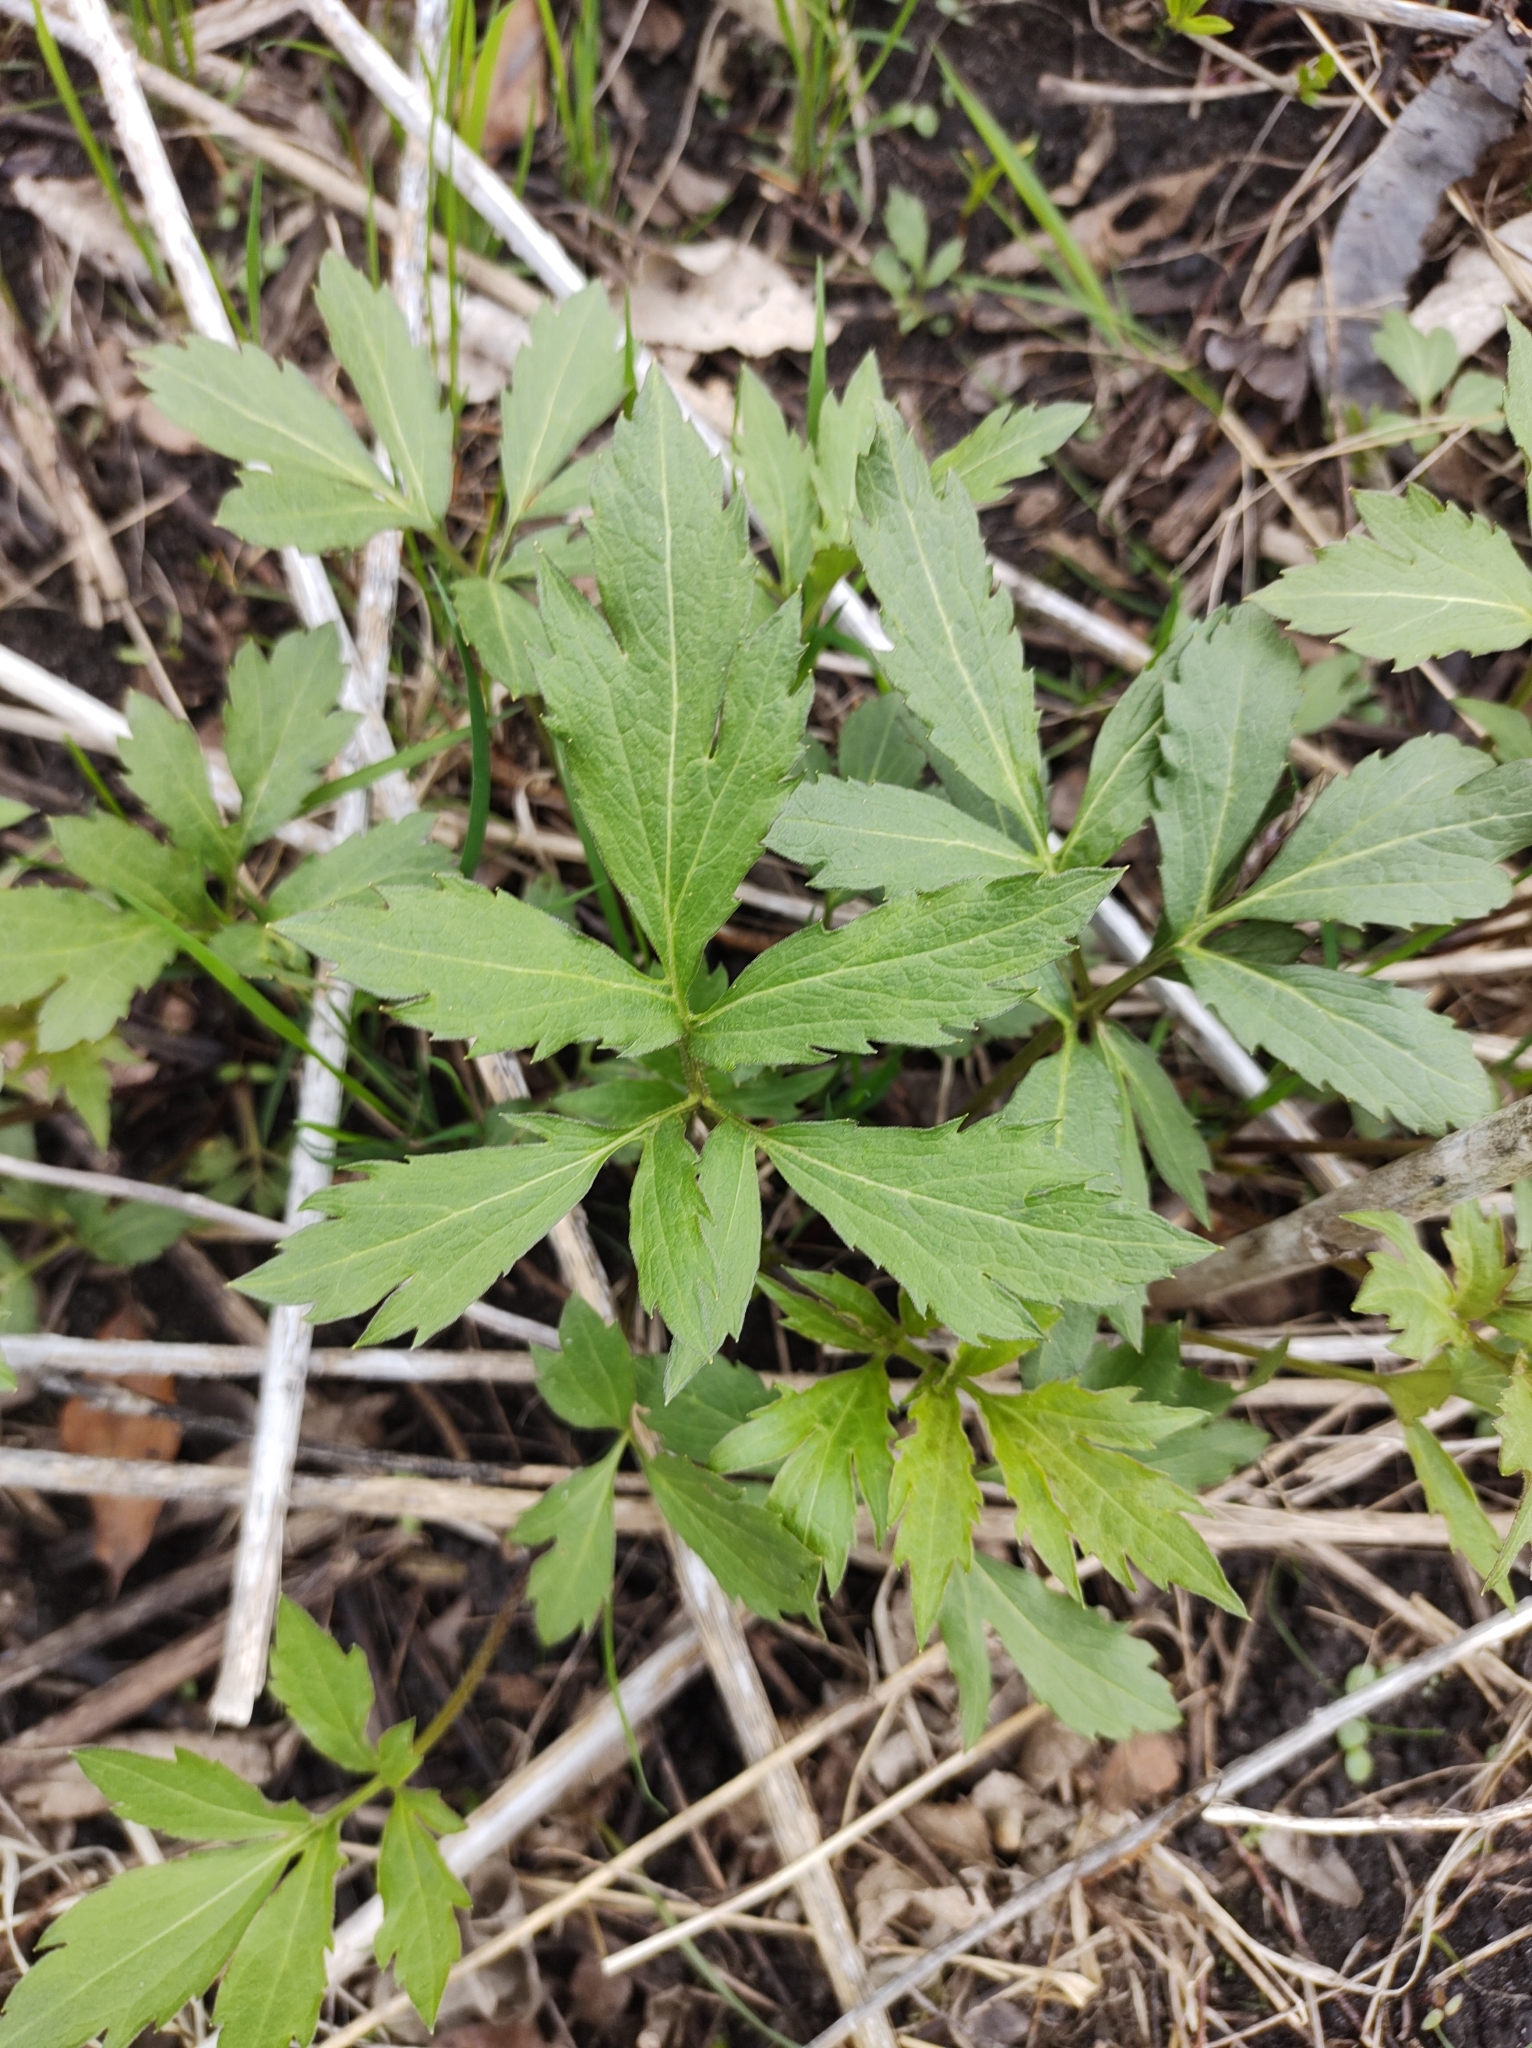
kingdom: Plantae
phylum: Tracheophyta
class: Magnoliopsida
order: Asterales
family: Asteraceae
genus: Rudbeckia
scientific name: Rudbeckia laciniata
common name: Coneflower
